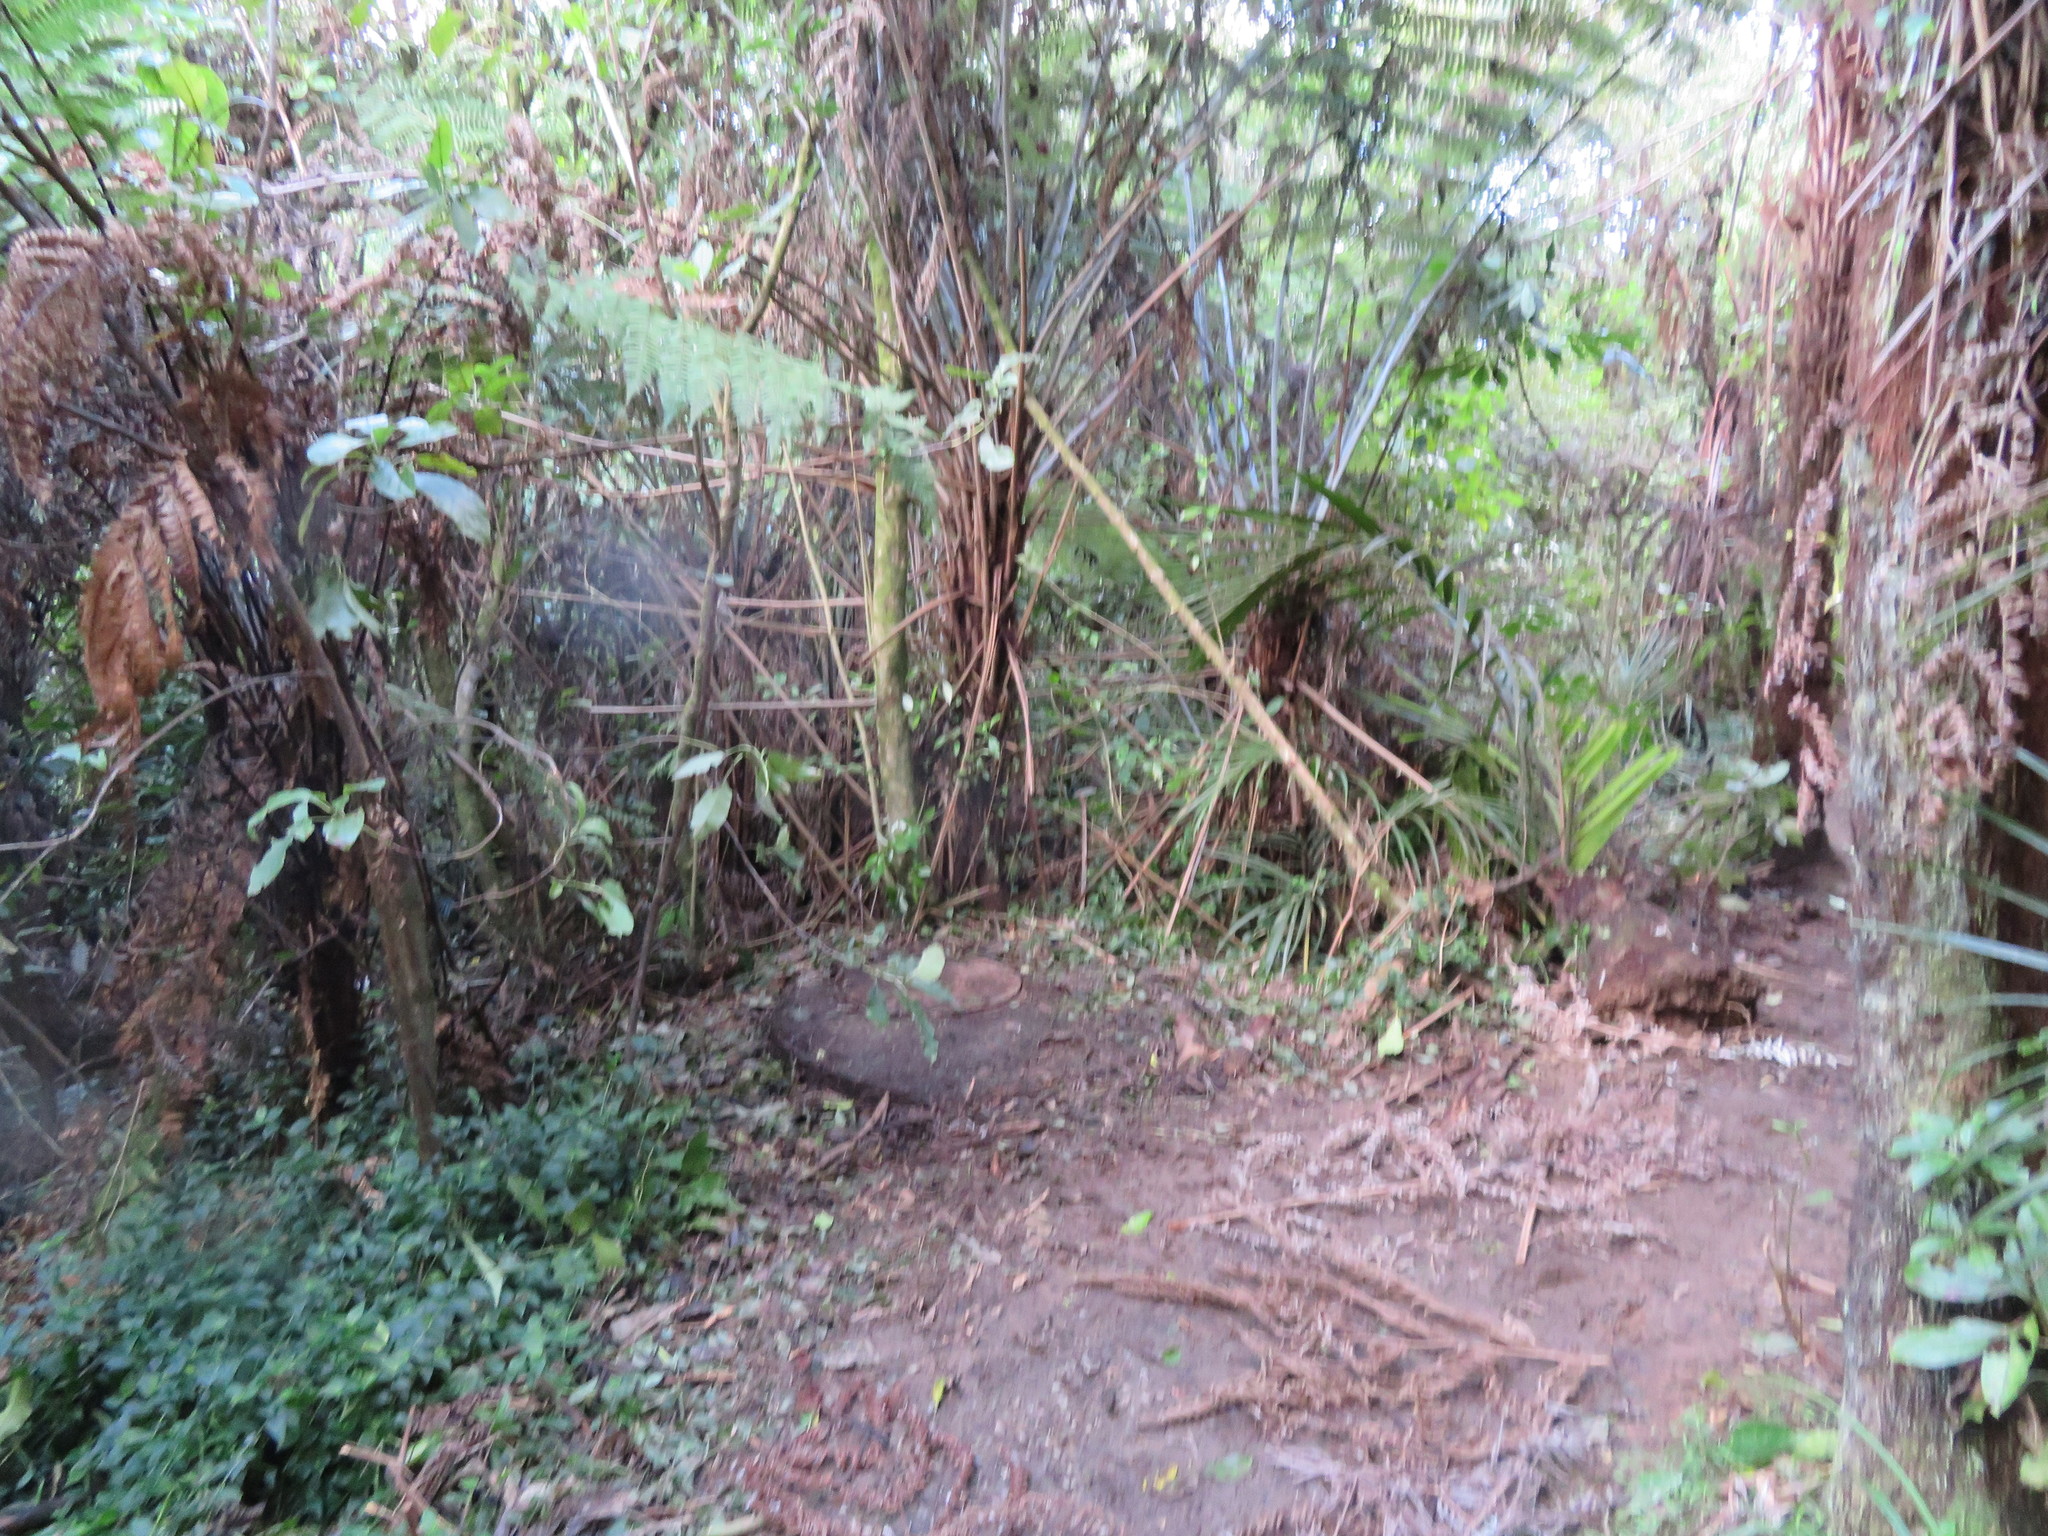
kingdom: Plantae
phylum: Tracheophyta
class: Liliopsida
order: Commelinales
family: Commelinaceae
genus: Tradescantia
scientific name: Tradescantia fluminensis
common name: Wandering-jew
